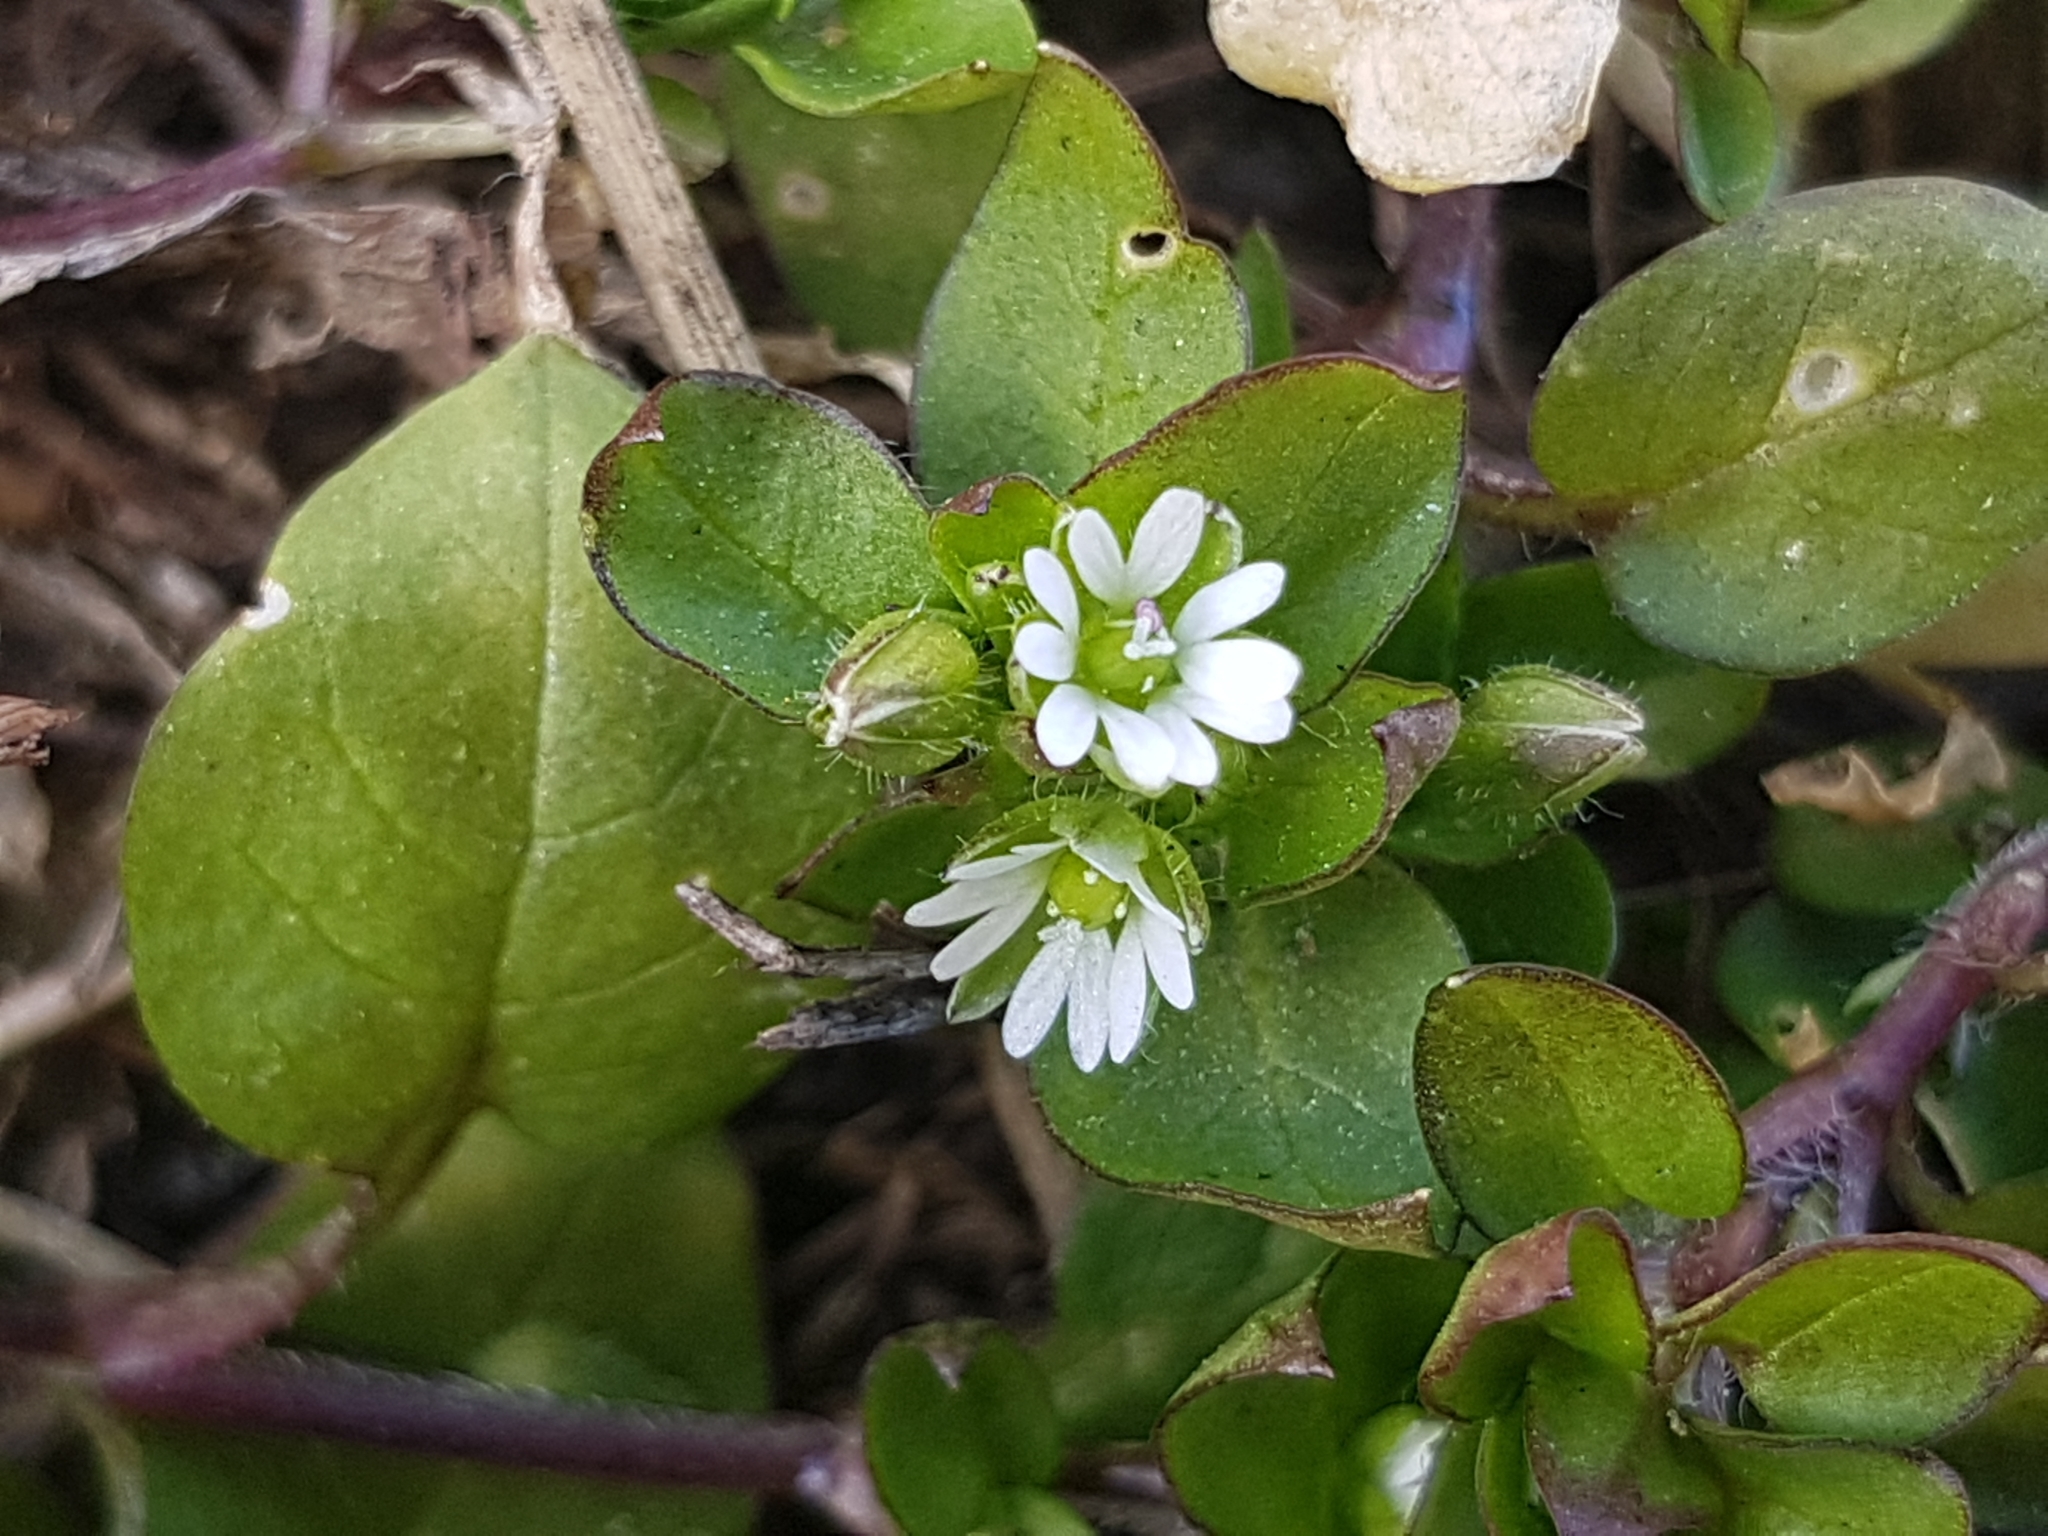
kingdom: Plantae
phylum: Tracheophyta
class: Magnoliopsida
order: Caryophyllales
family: Caryophyllaceae
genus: Stellaria
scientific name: Stellaria media
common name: Common chickweed
